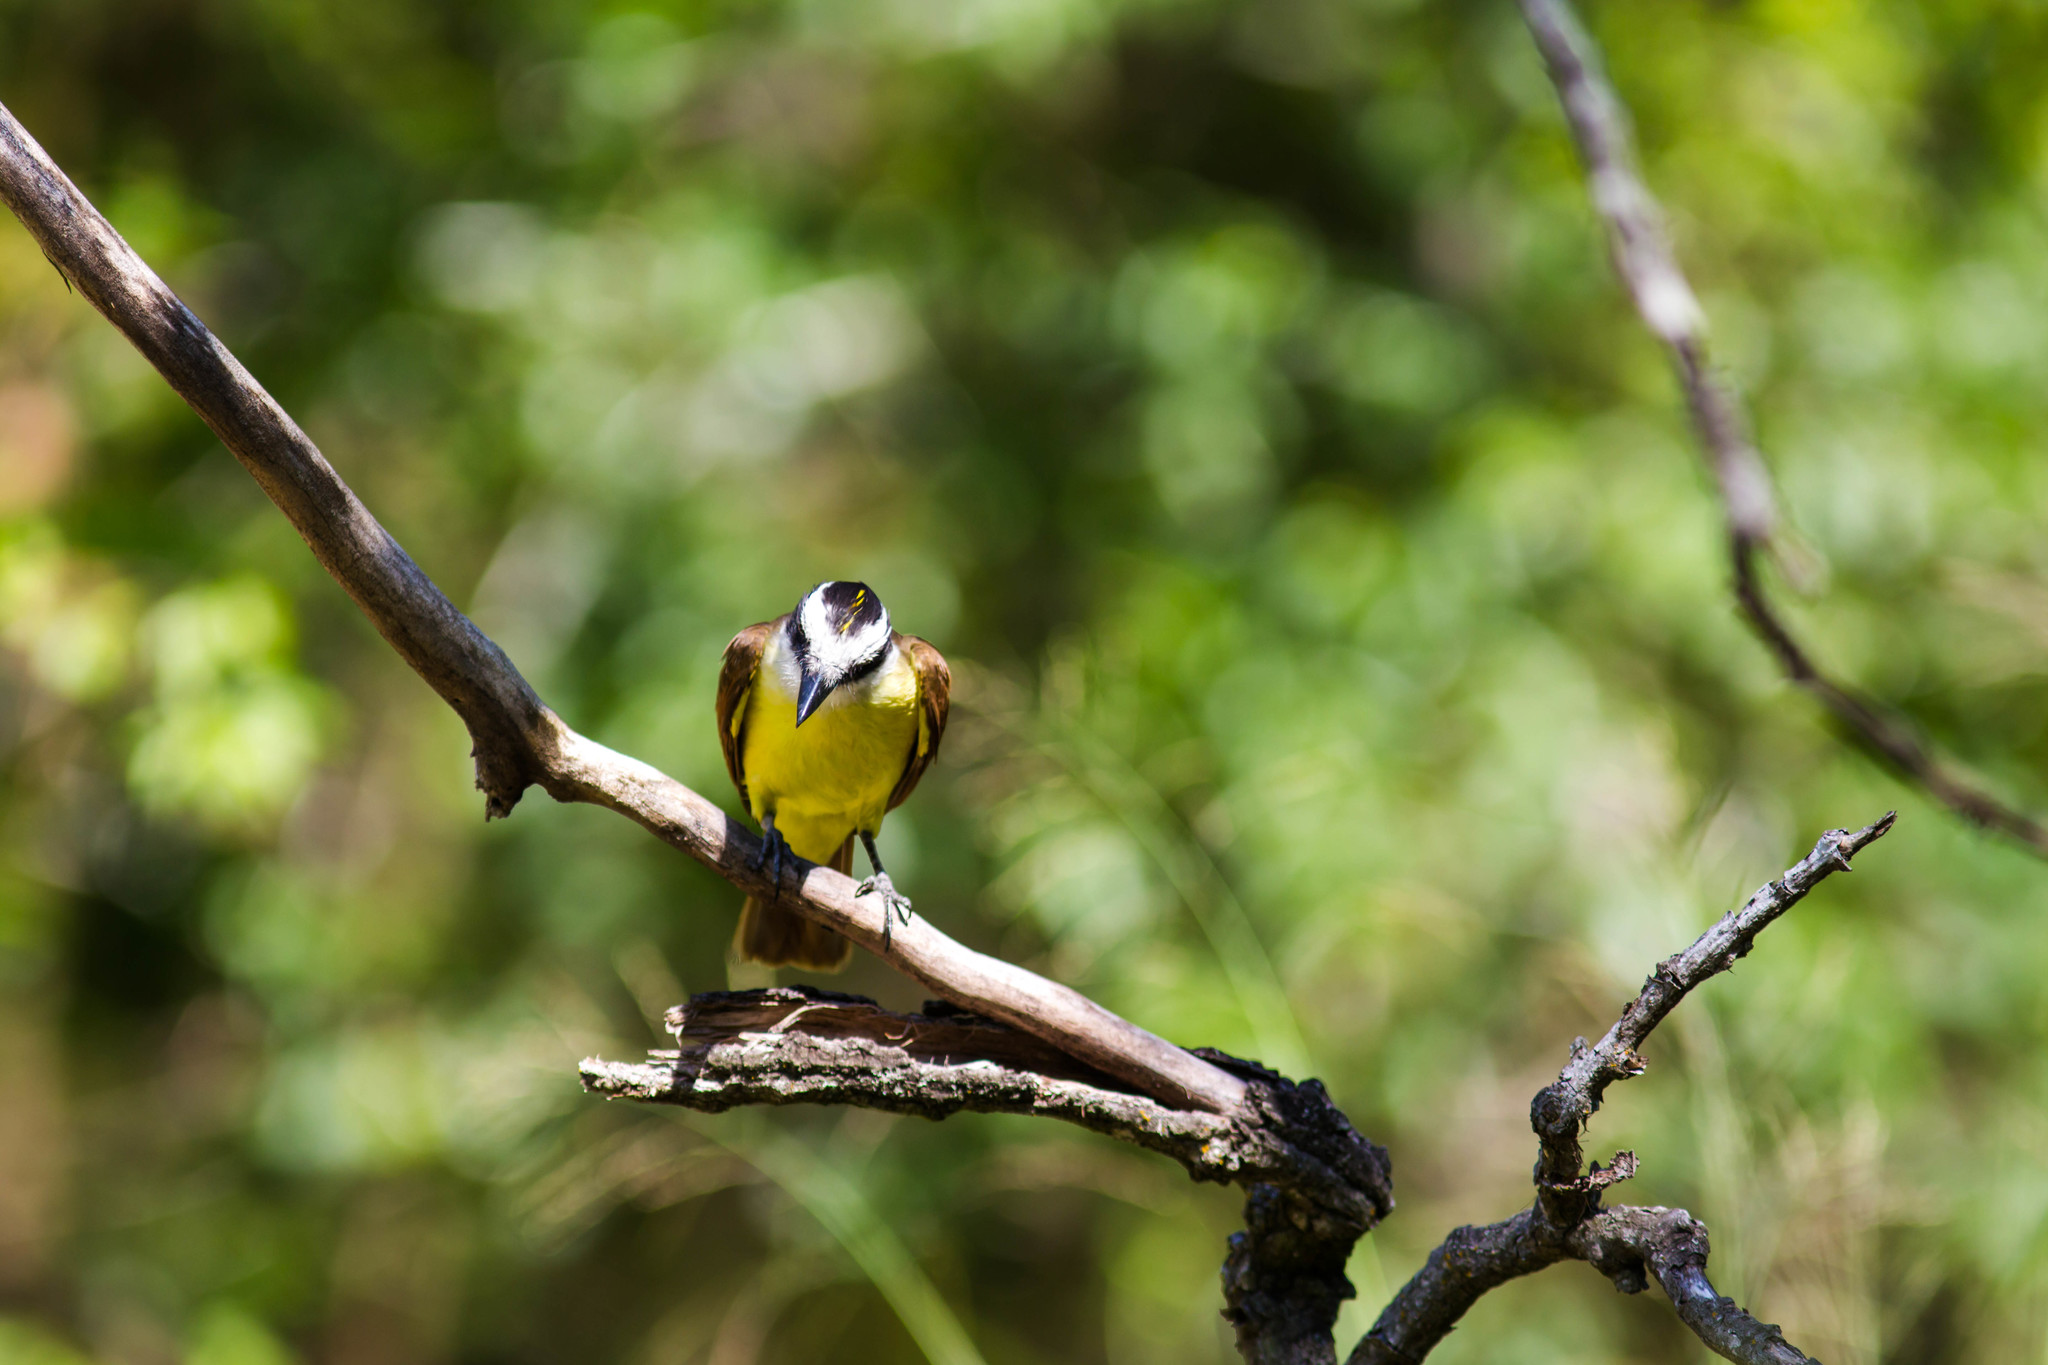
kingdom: Animalia
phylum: Chordata
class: Aves
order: Passeriformes
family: Tyrannidae
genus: Pitangus
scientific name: Pitangus sulphuratus
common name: Great kiskadee
